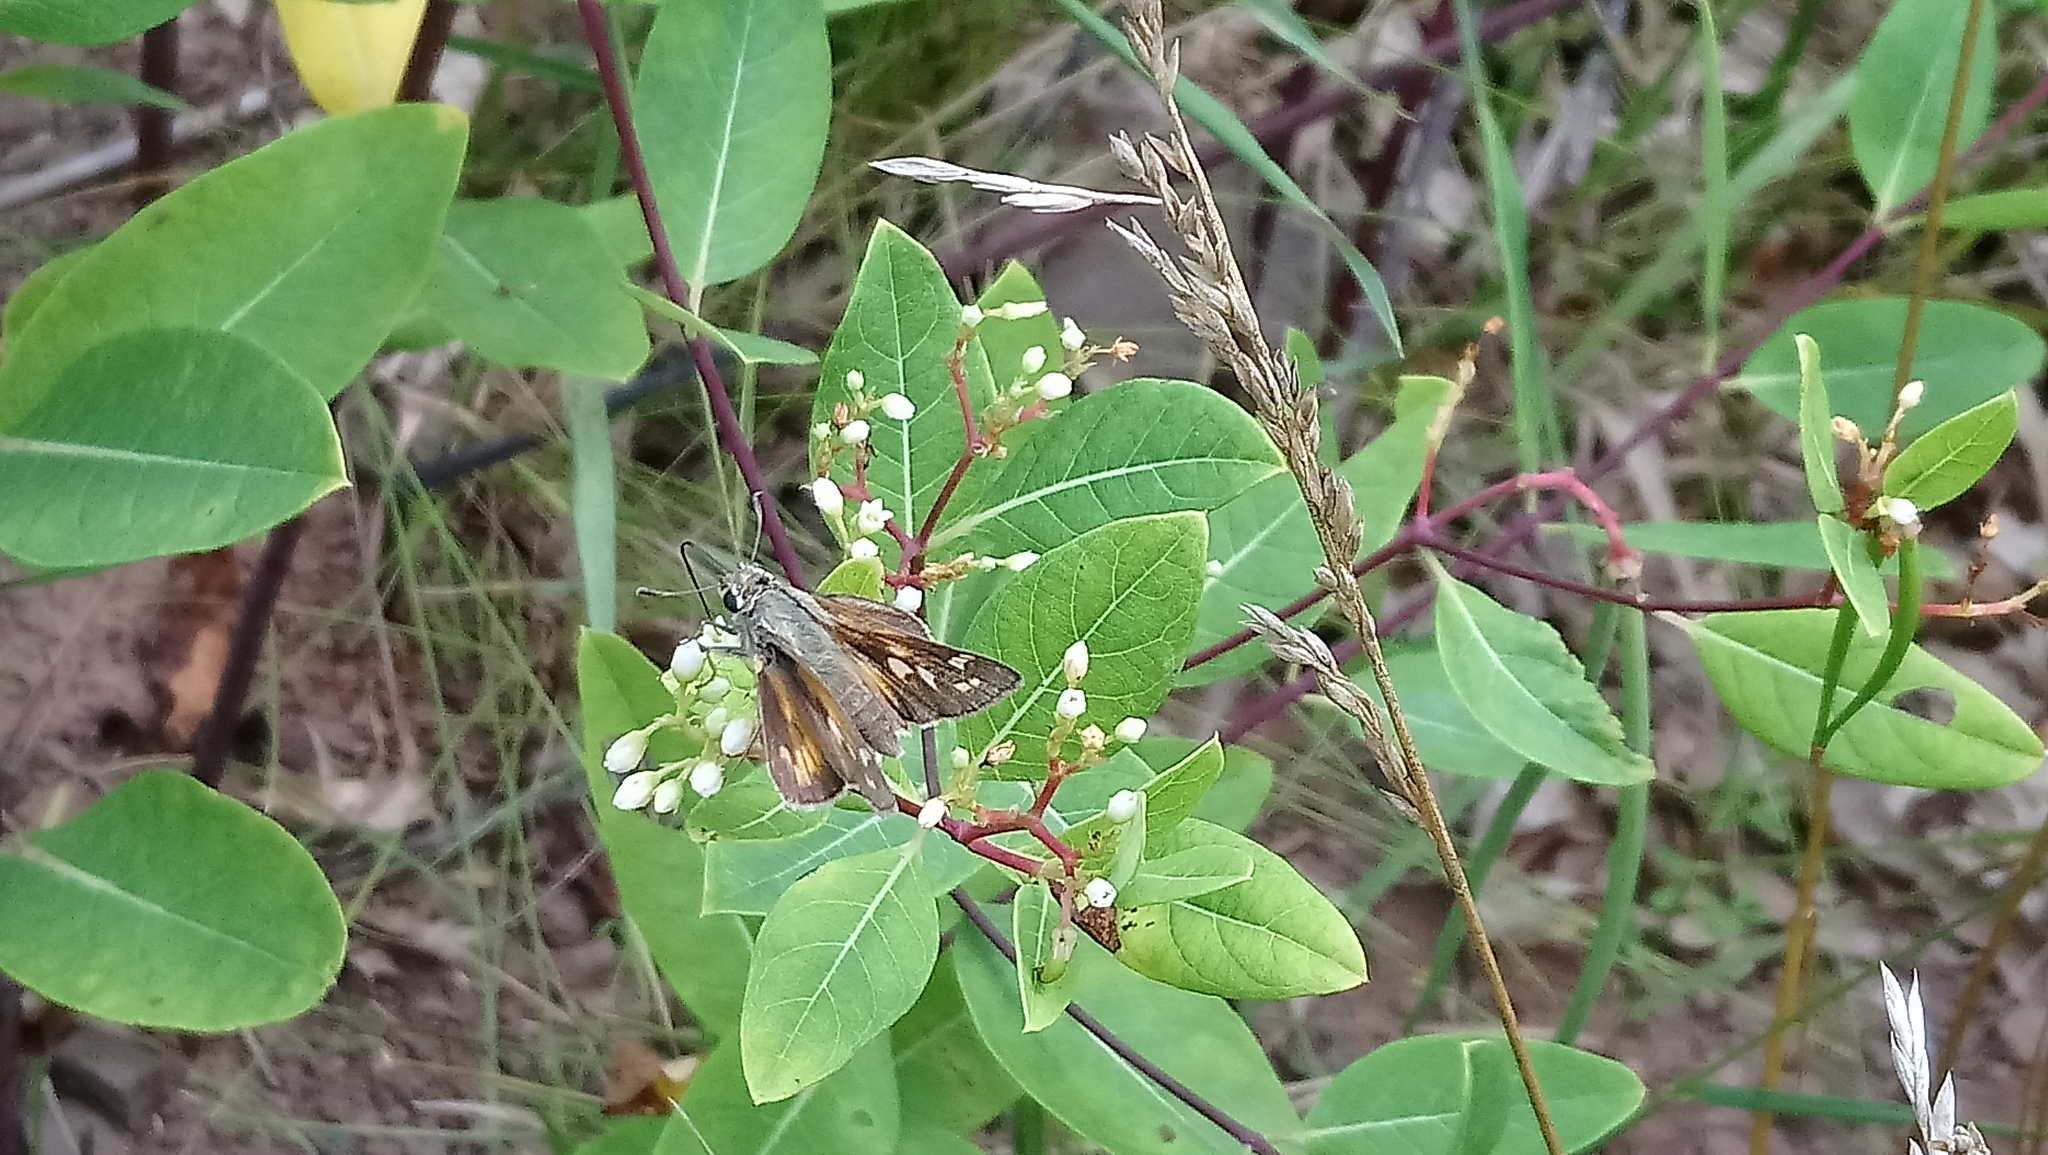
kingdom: Animalia
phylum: Arthropoda
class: Insecta
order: Lepidoptera
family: Hesperiidae
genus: Atalopedes
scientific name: Atalopedes
